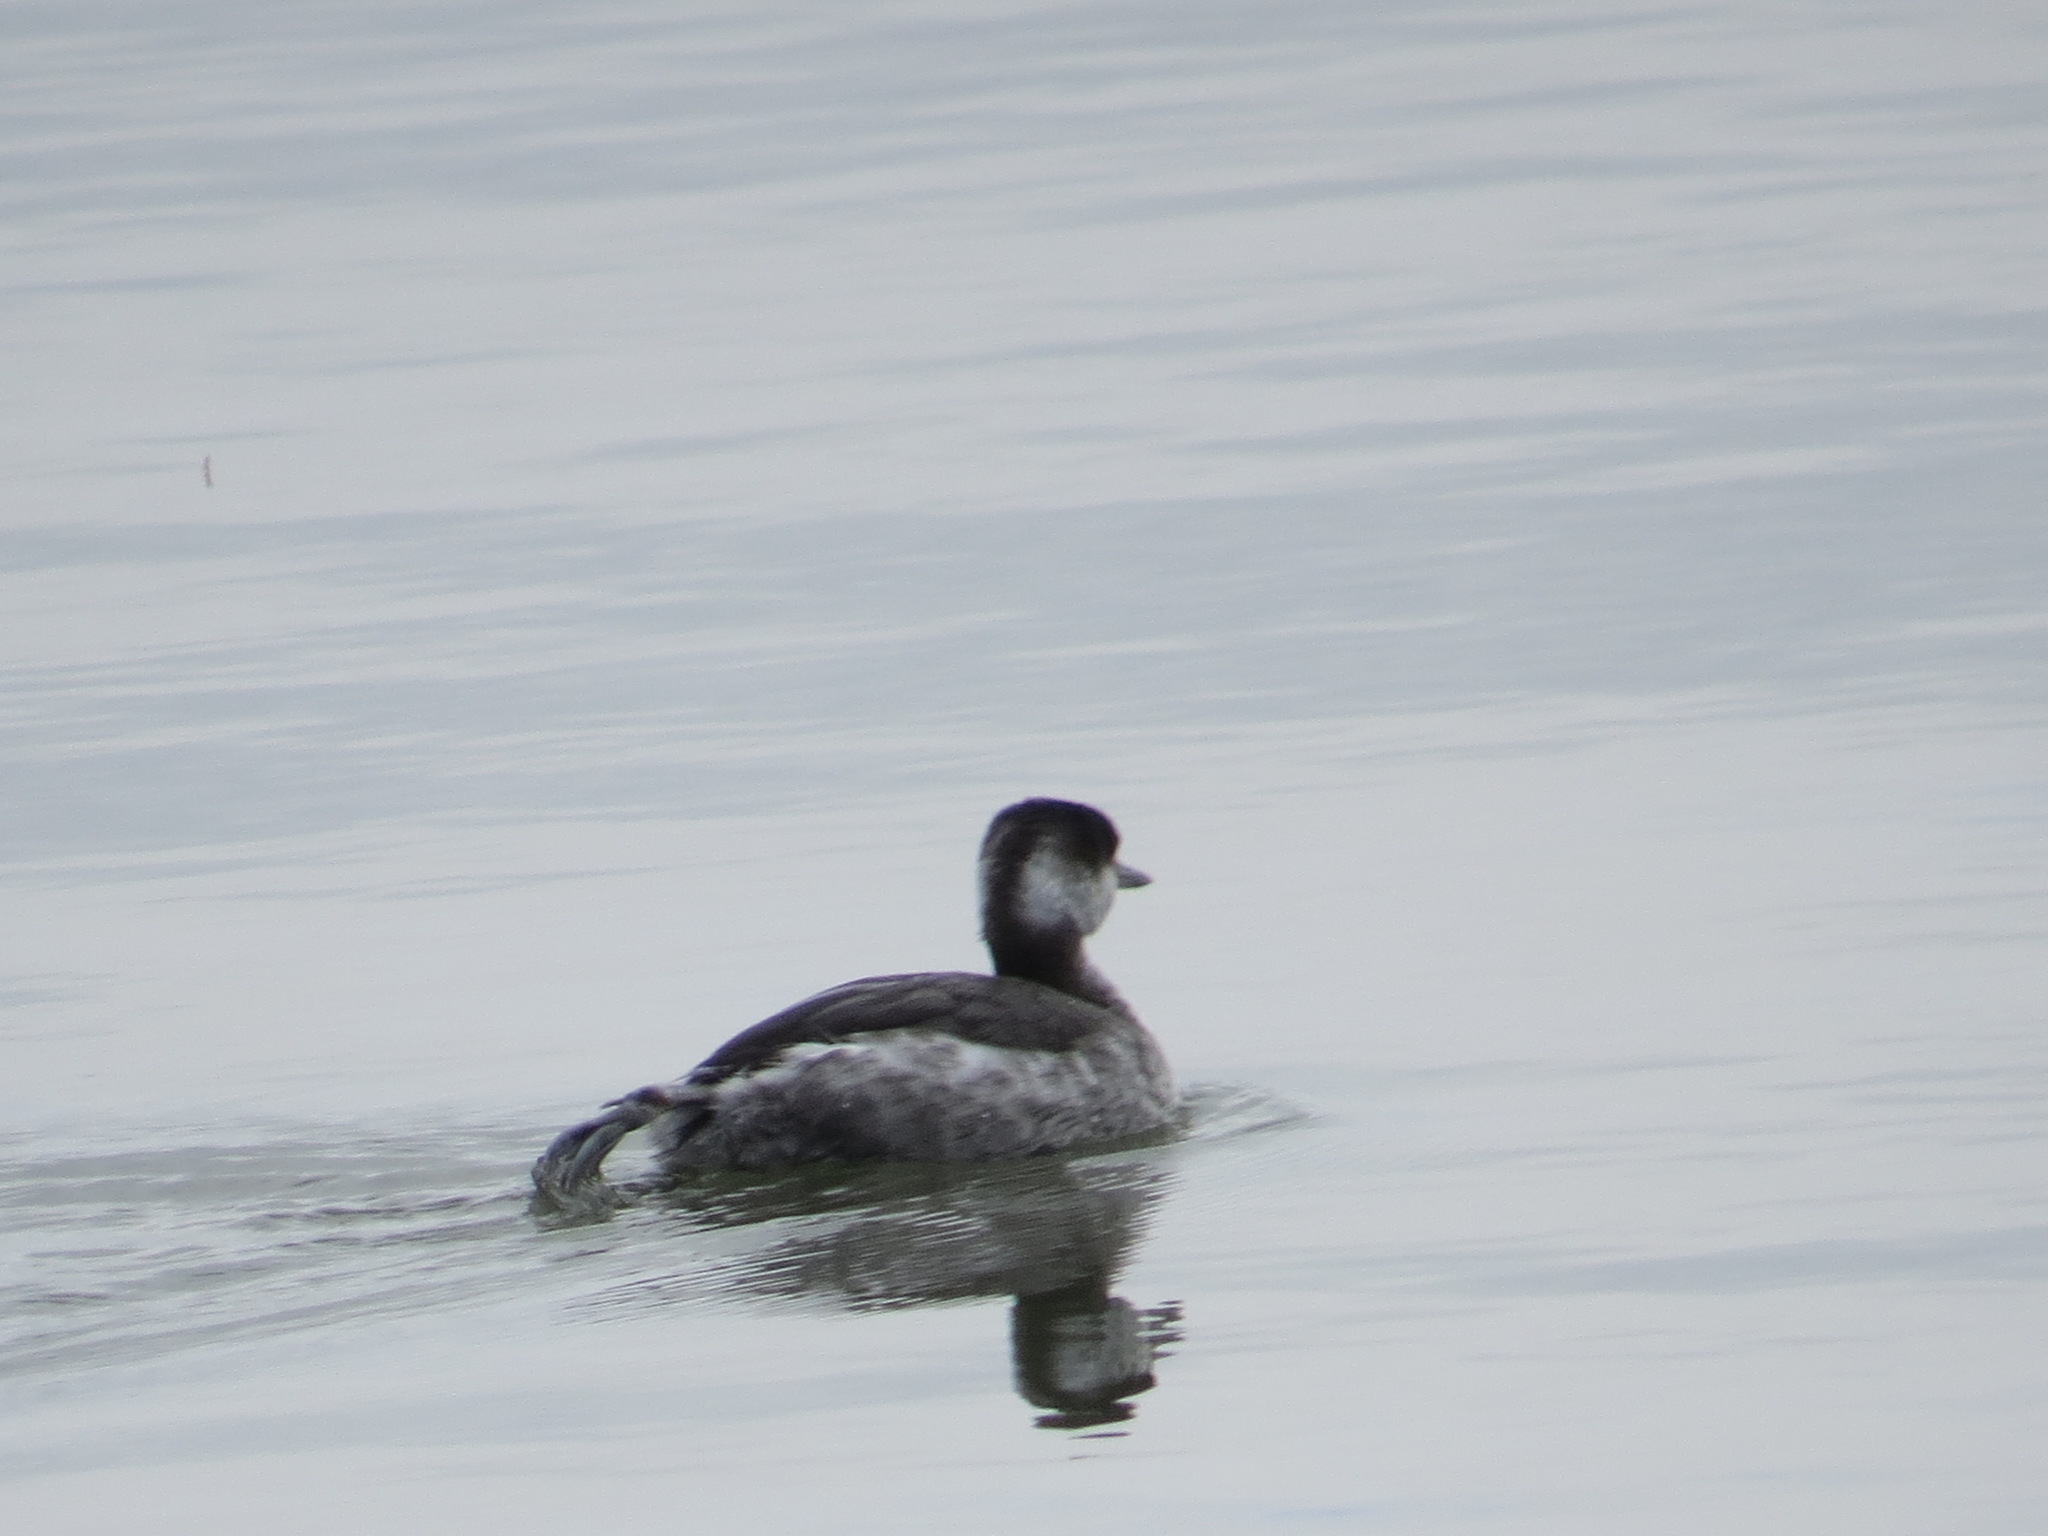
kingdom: Animalia
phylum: Chordata
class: Aves
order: Podicipediformes
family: Podicipedidae
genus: Podiceps
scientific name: Podiceps auritus
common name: Horned grebe
